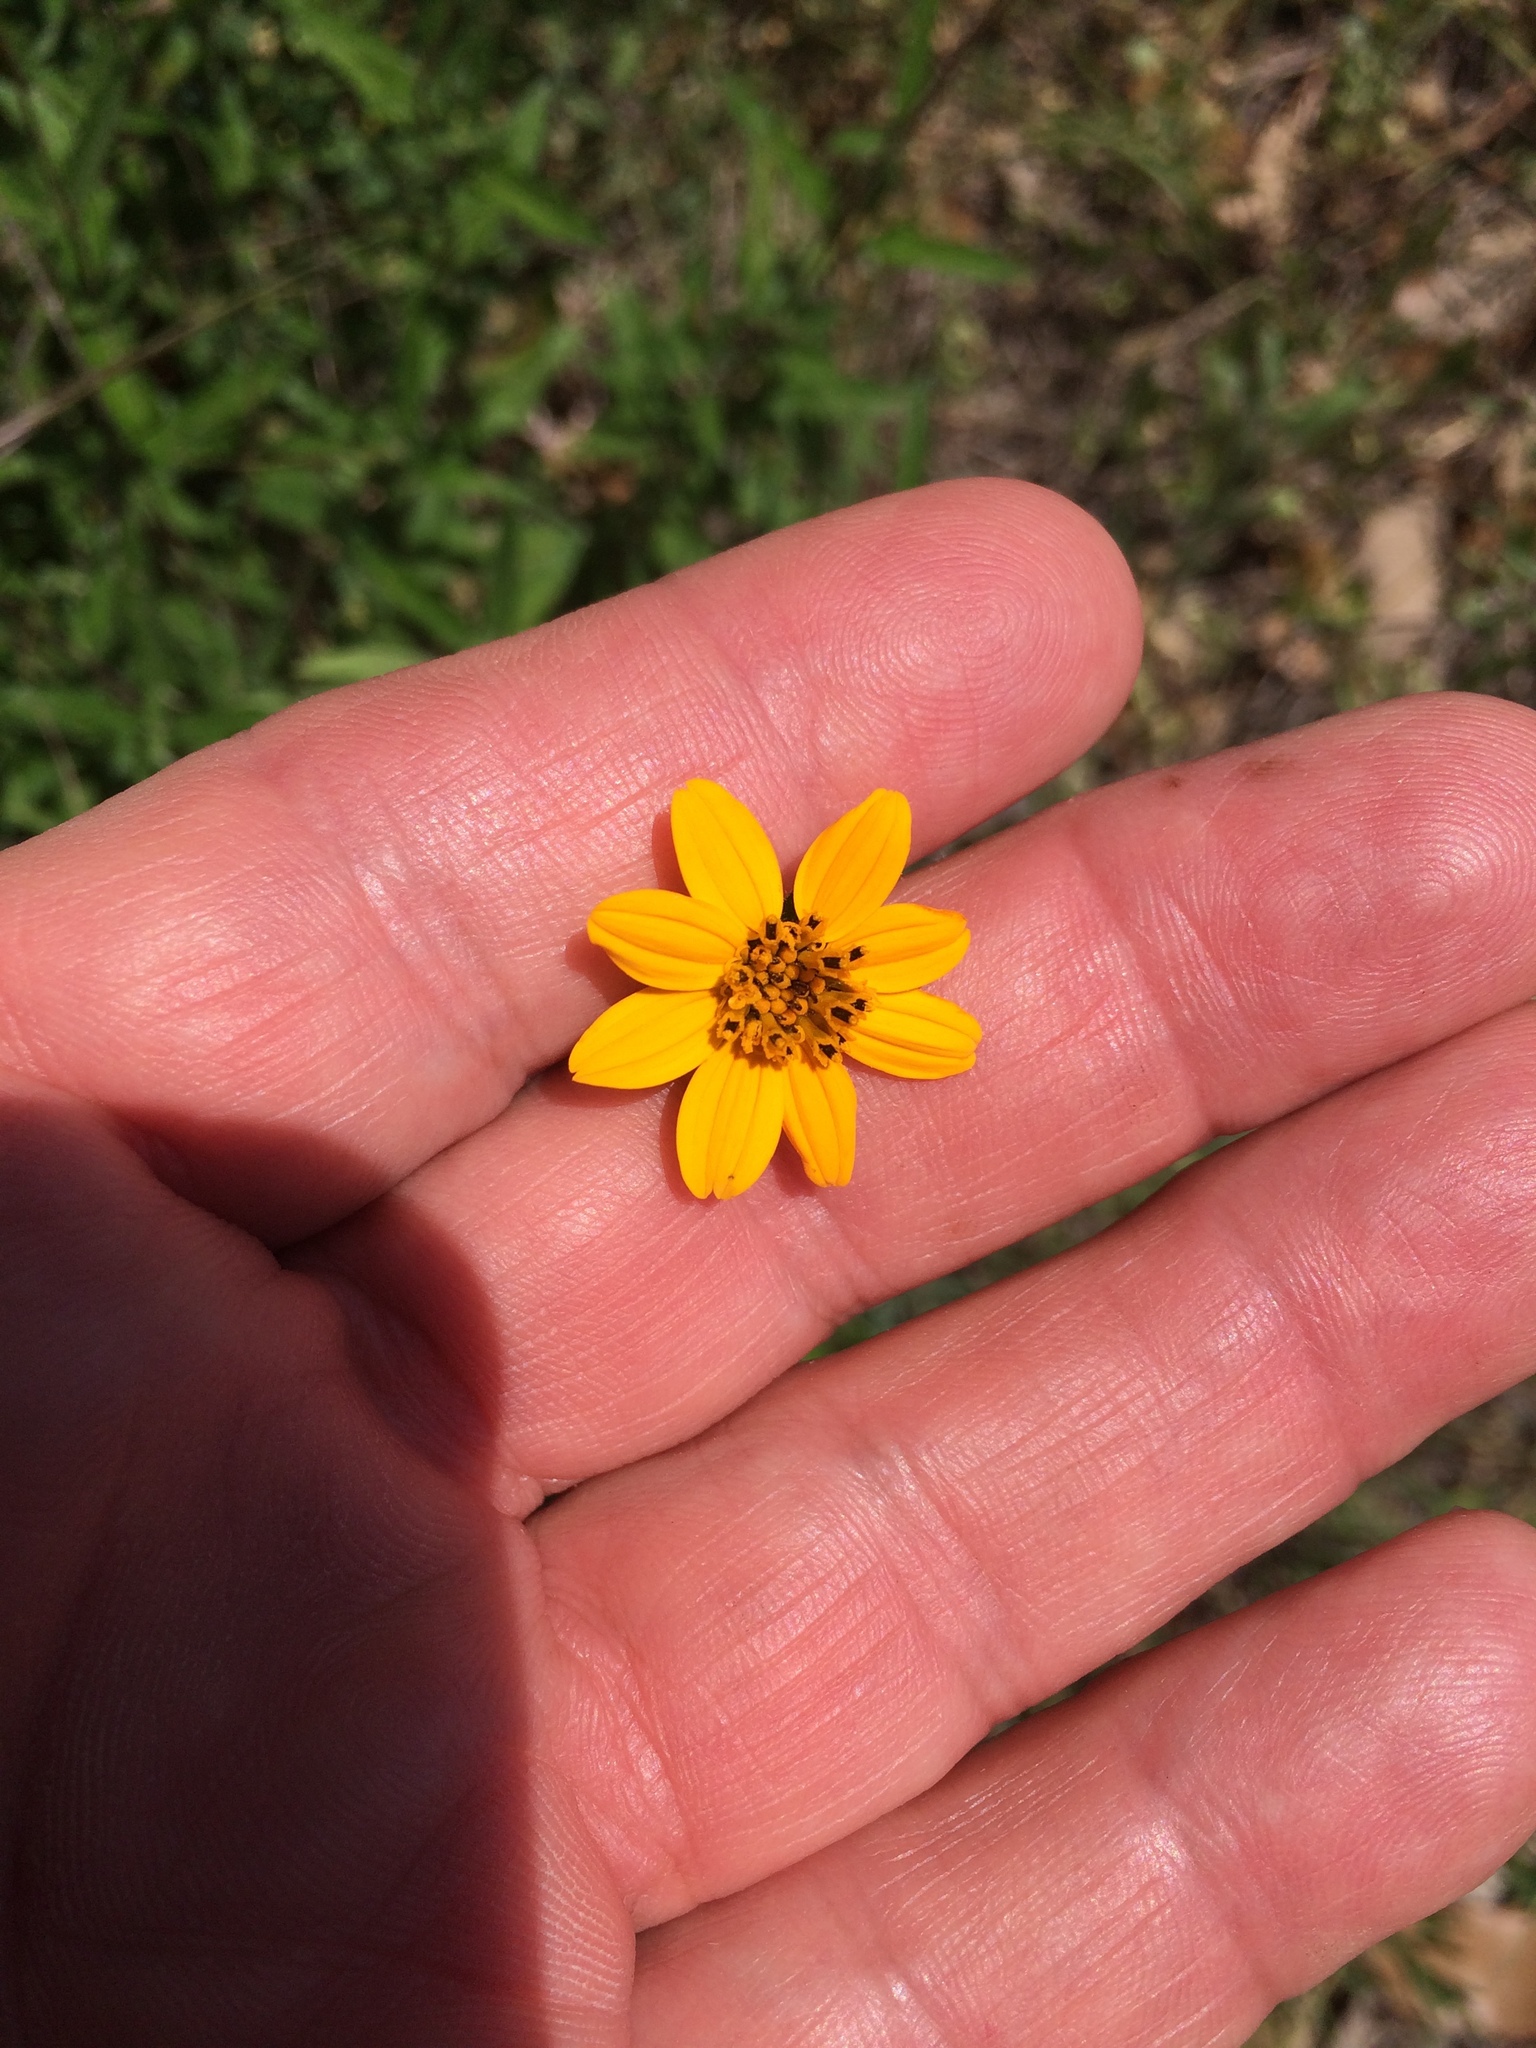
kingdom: Plantae
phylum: Tracheophyta
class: Magnoliopsida
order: Asterales
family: Asteraceae
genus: Wedelia
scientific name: Wedelia acapulcensis
